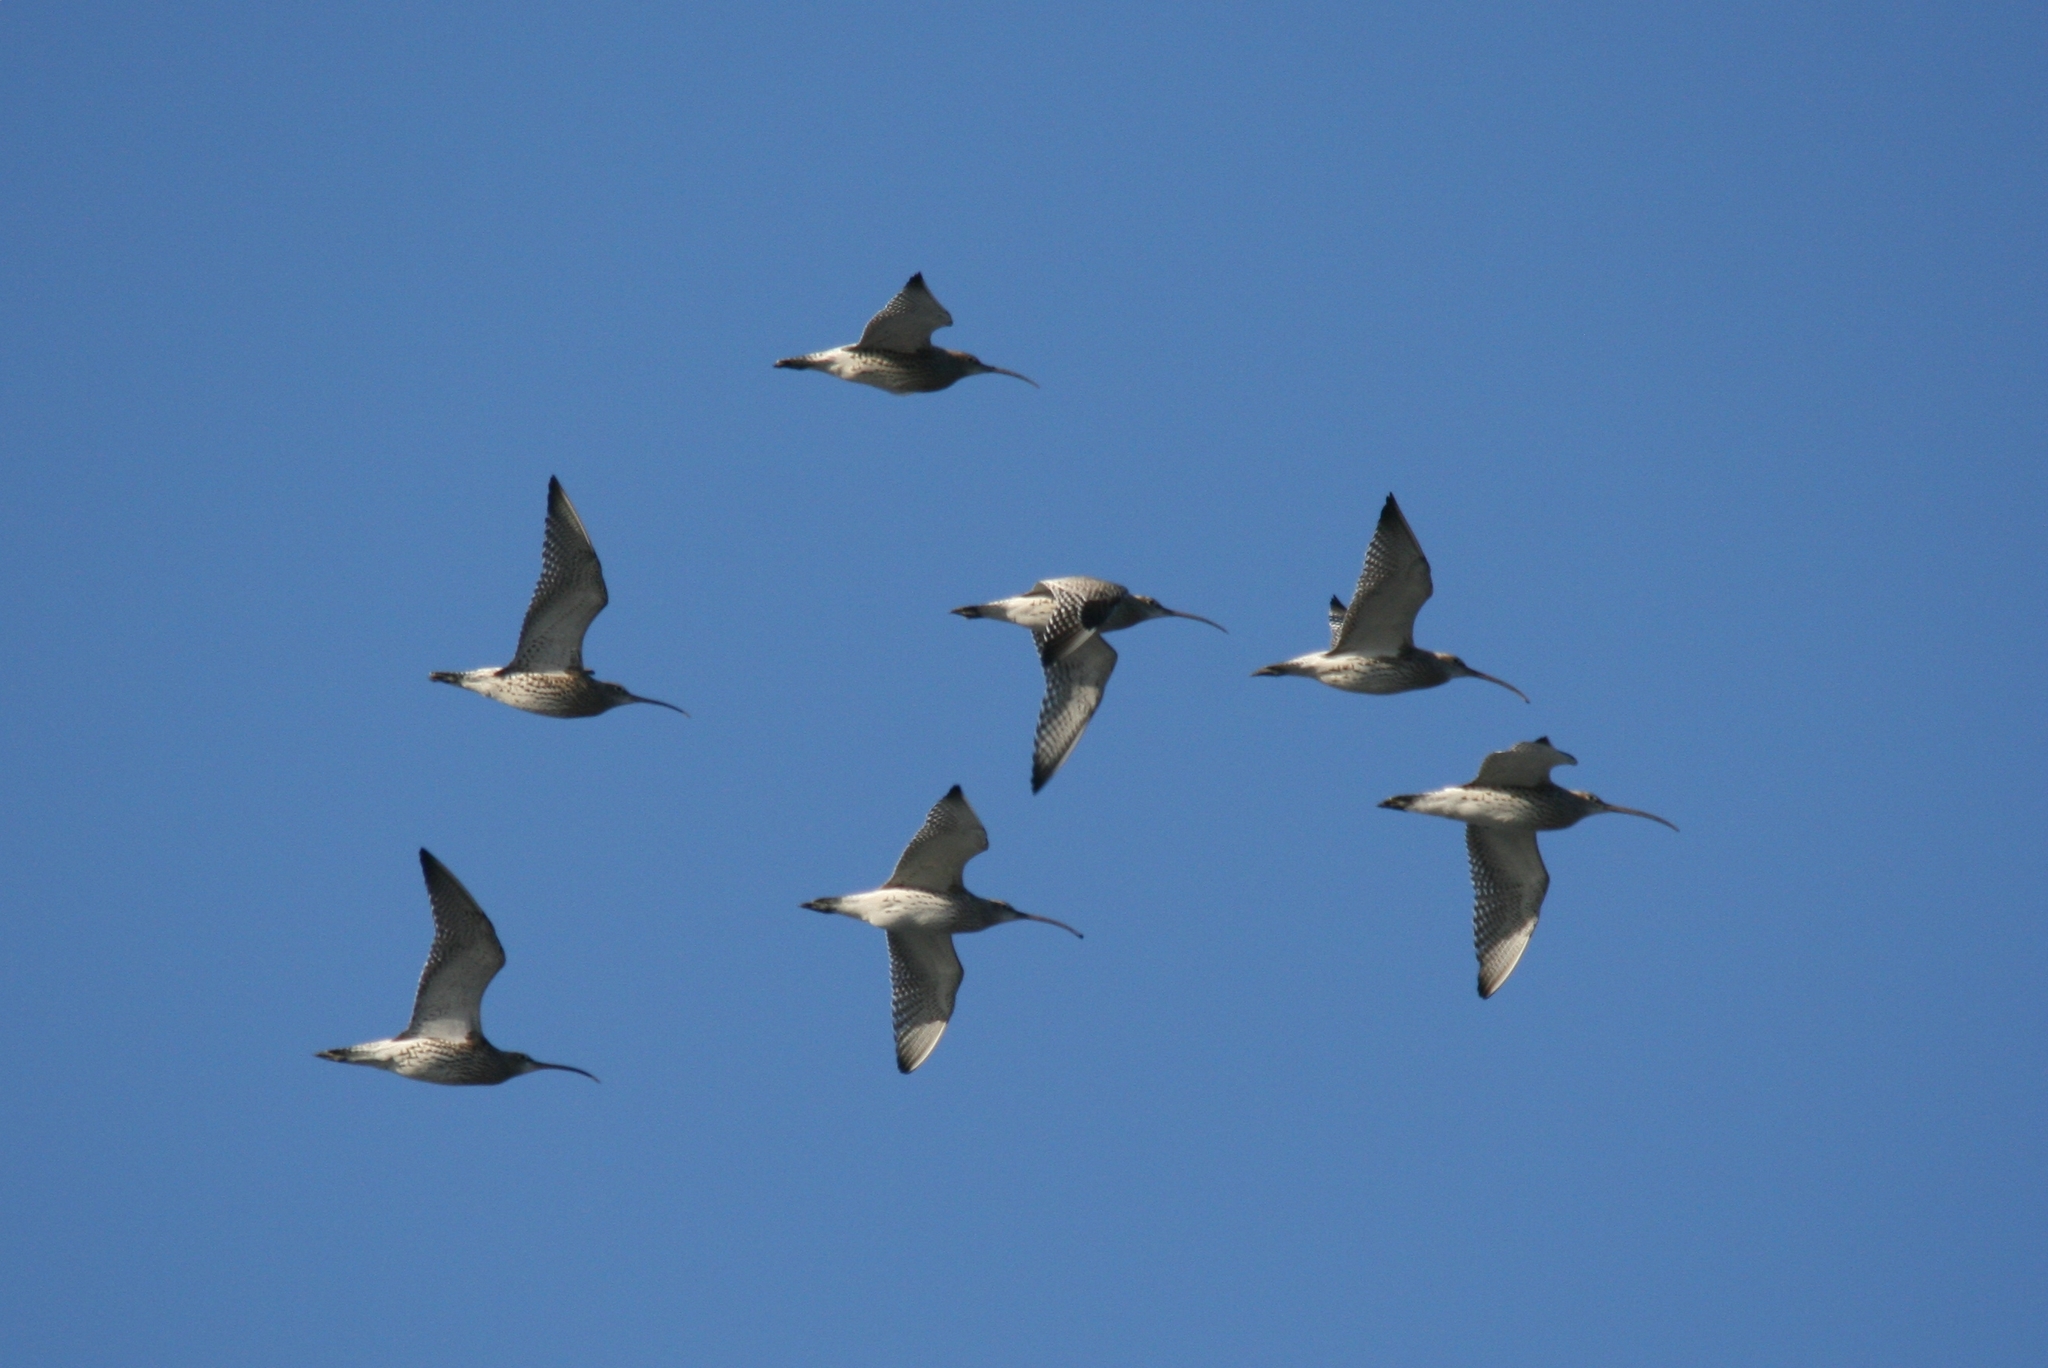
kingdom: Animalia
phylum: Chordata
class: Aves
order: Charadriiformes
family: Scolopacidae
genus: Numenius
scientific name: Numenius arquata
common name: Eurasian curlew
